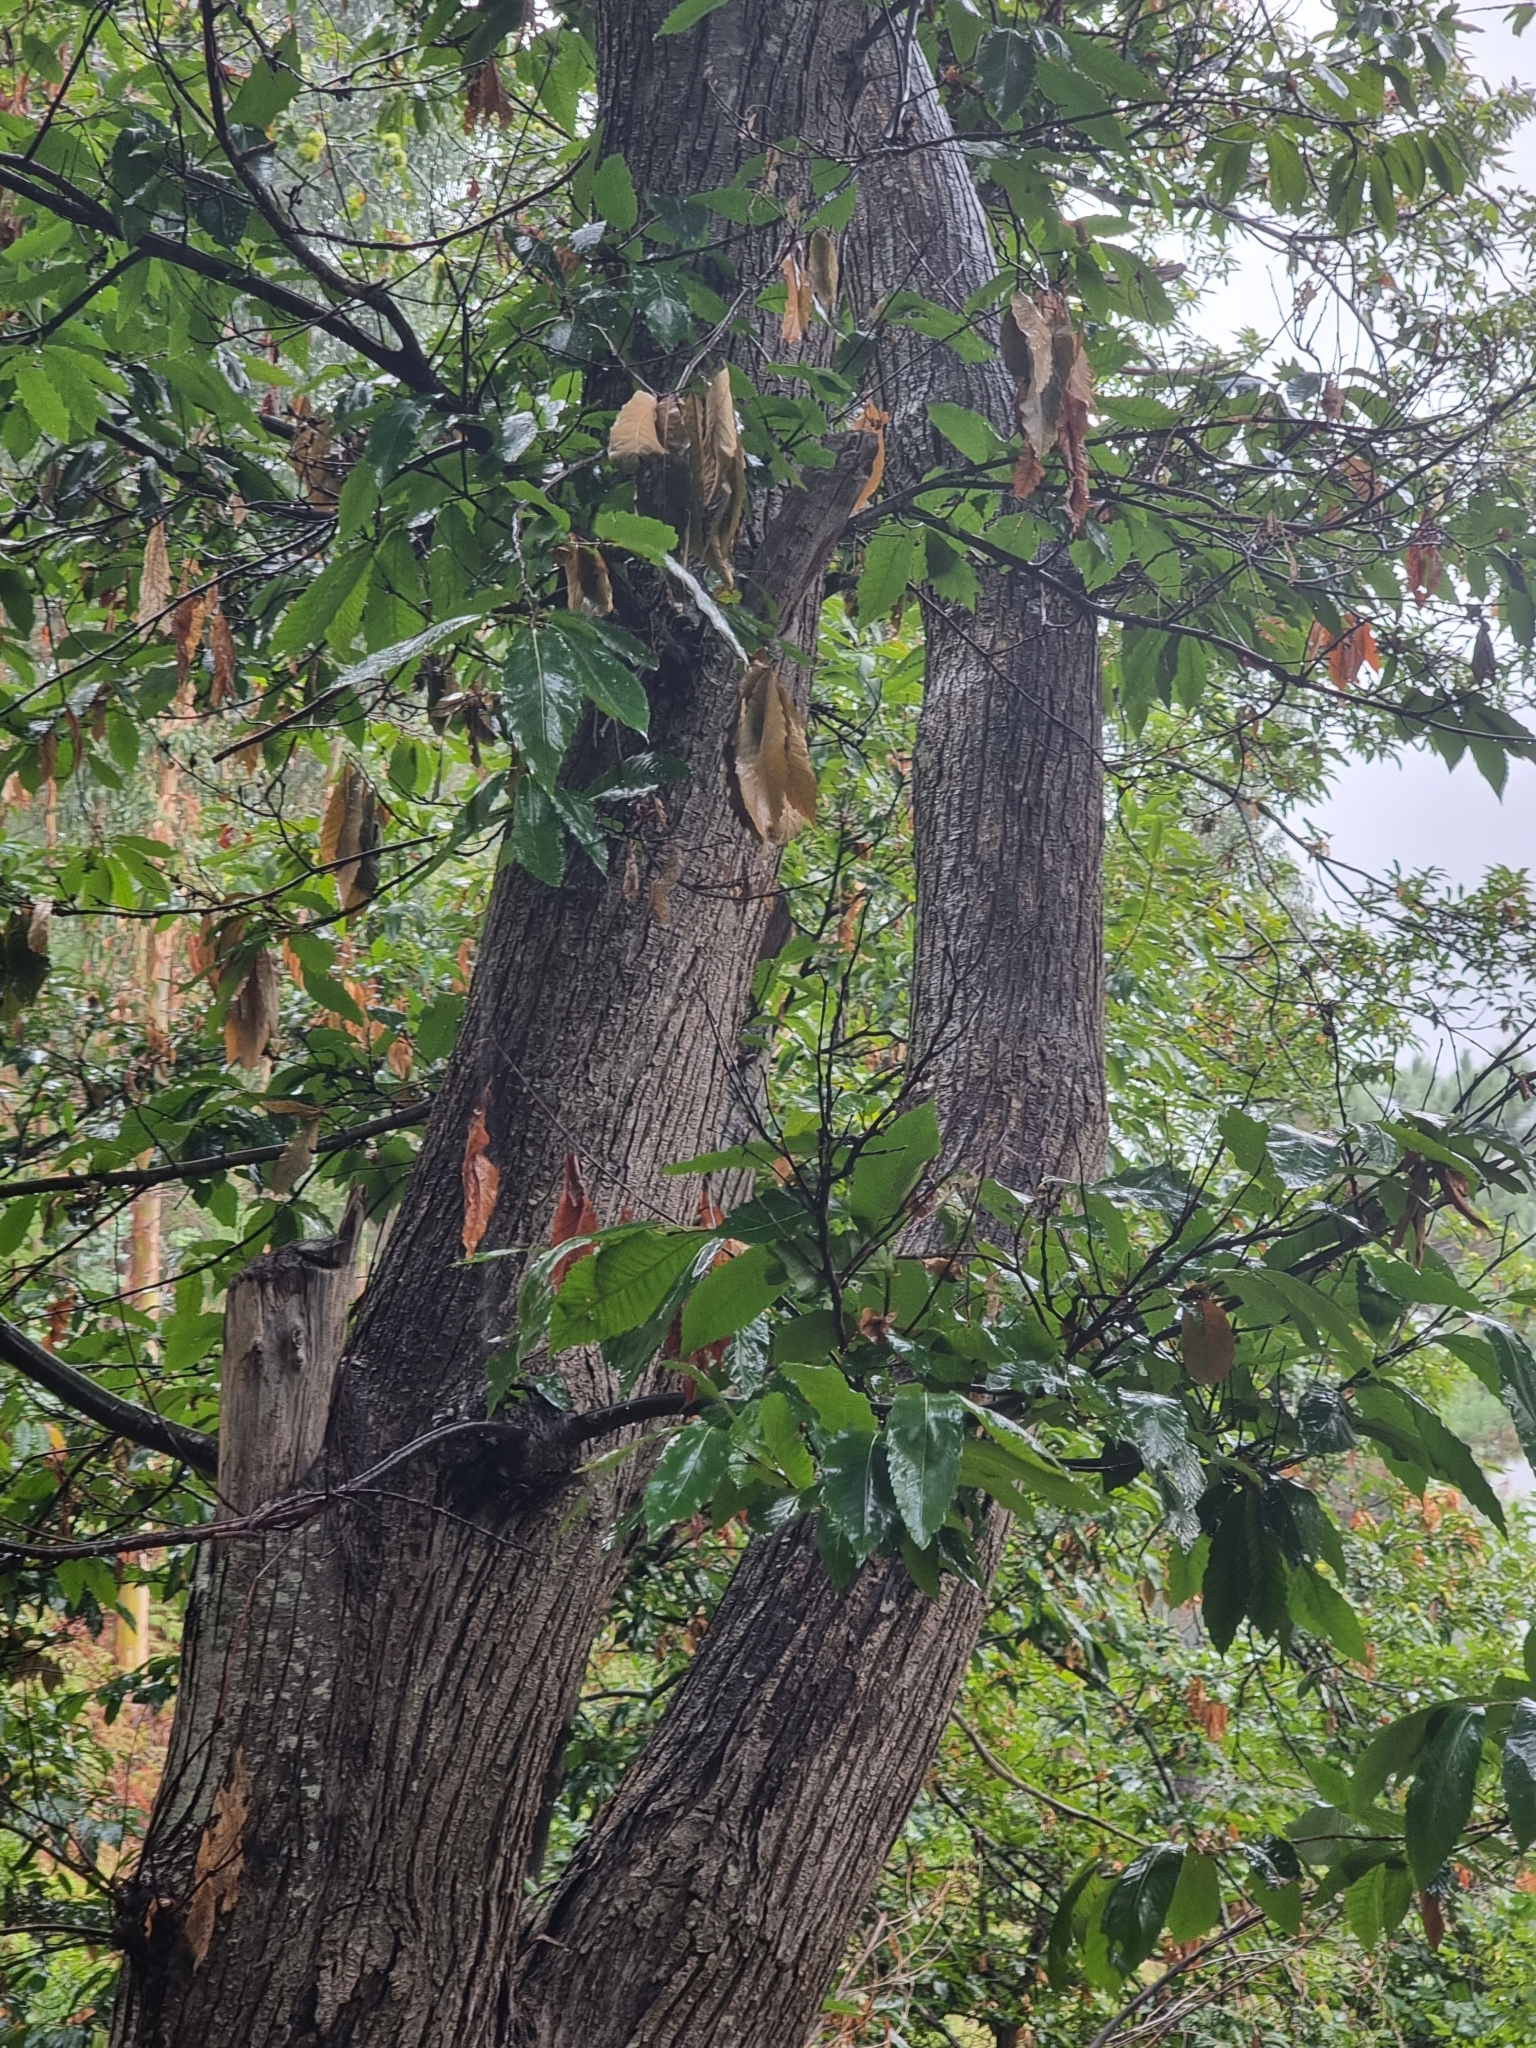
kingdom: Plantae
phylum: Tracheophyta
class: Magnoliopsida
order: Fagales
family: Fagaceae
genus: Castanea
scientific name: Castanea sativa
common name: Sweet chestnut
